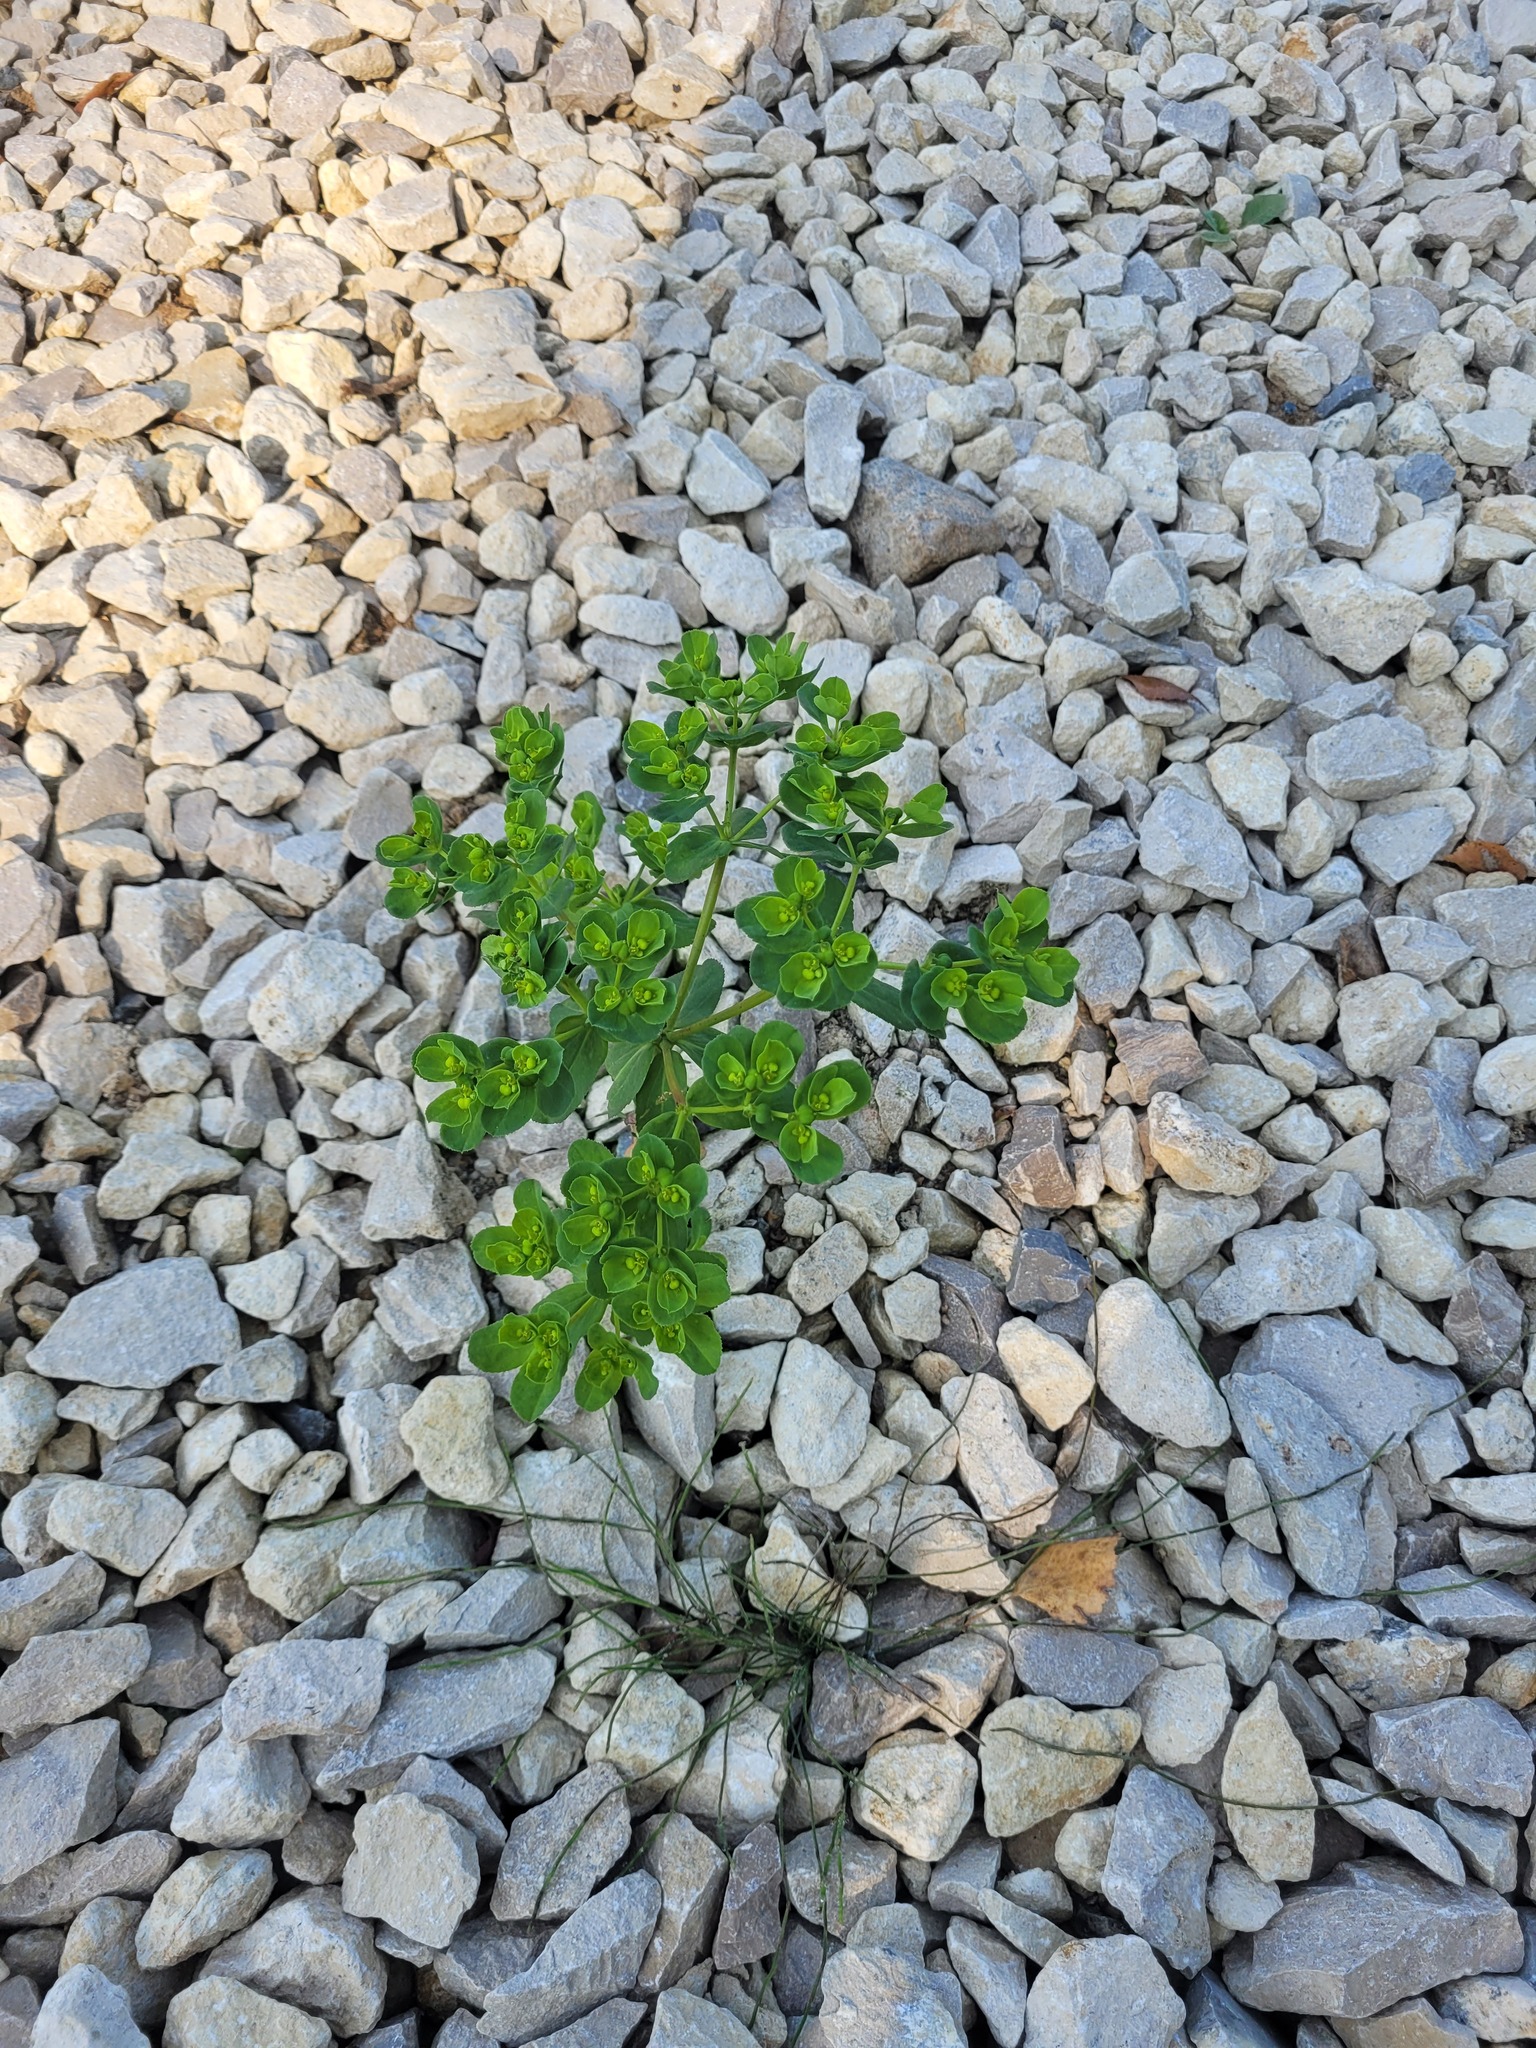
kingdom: Plantae
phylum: Tracheophyta
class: Magnoliopsida
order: Malpighiales
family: Euphorbiaceae
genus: Euphorbia
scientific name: Euphorbia helioscopia
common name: Sun spurge
